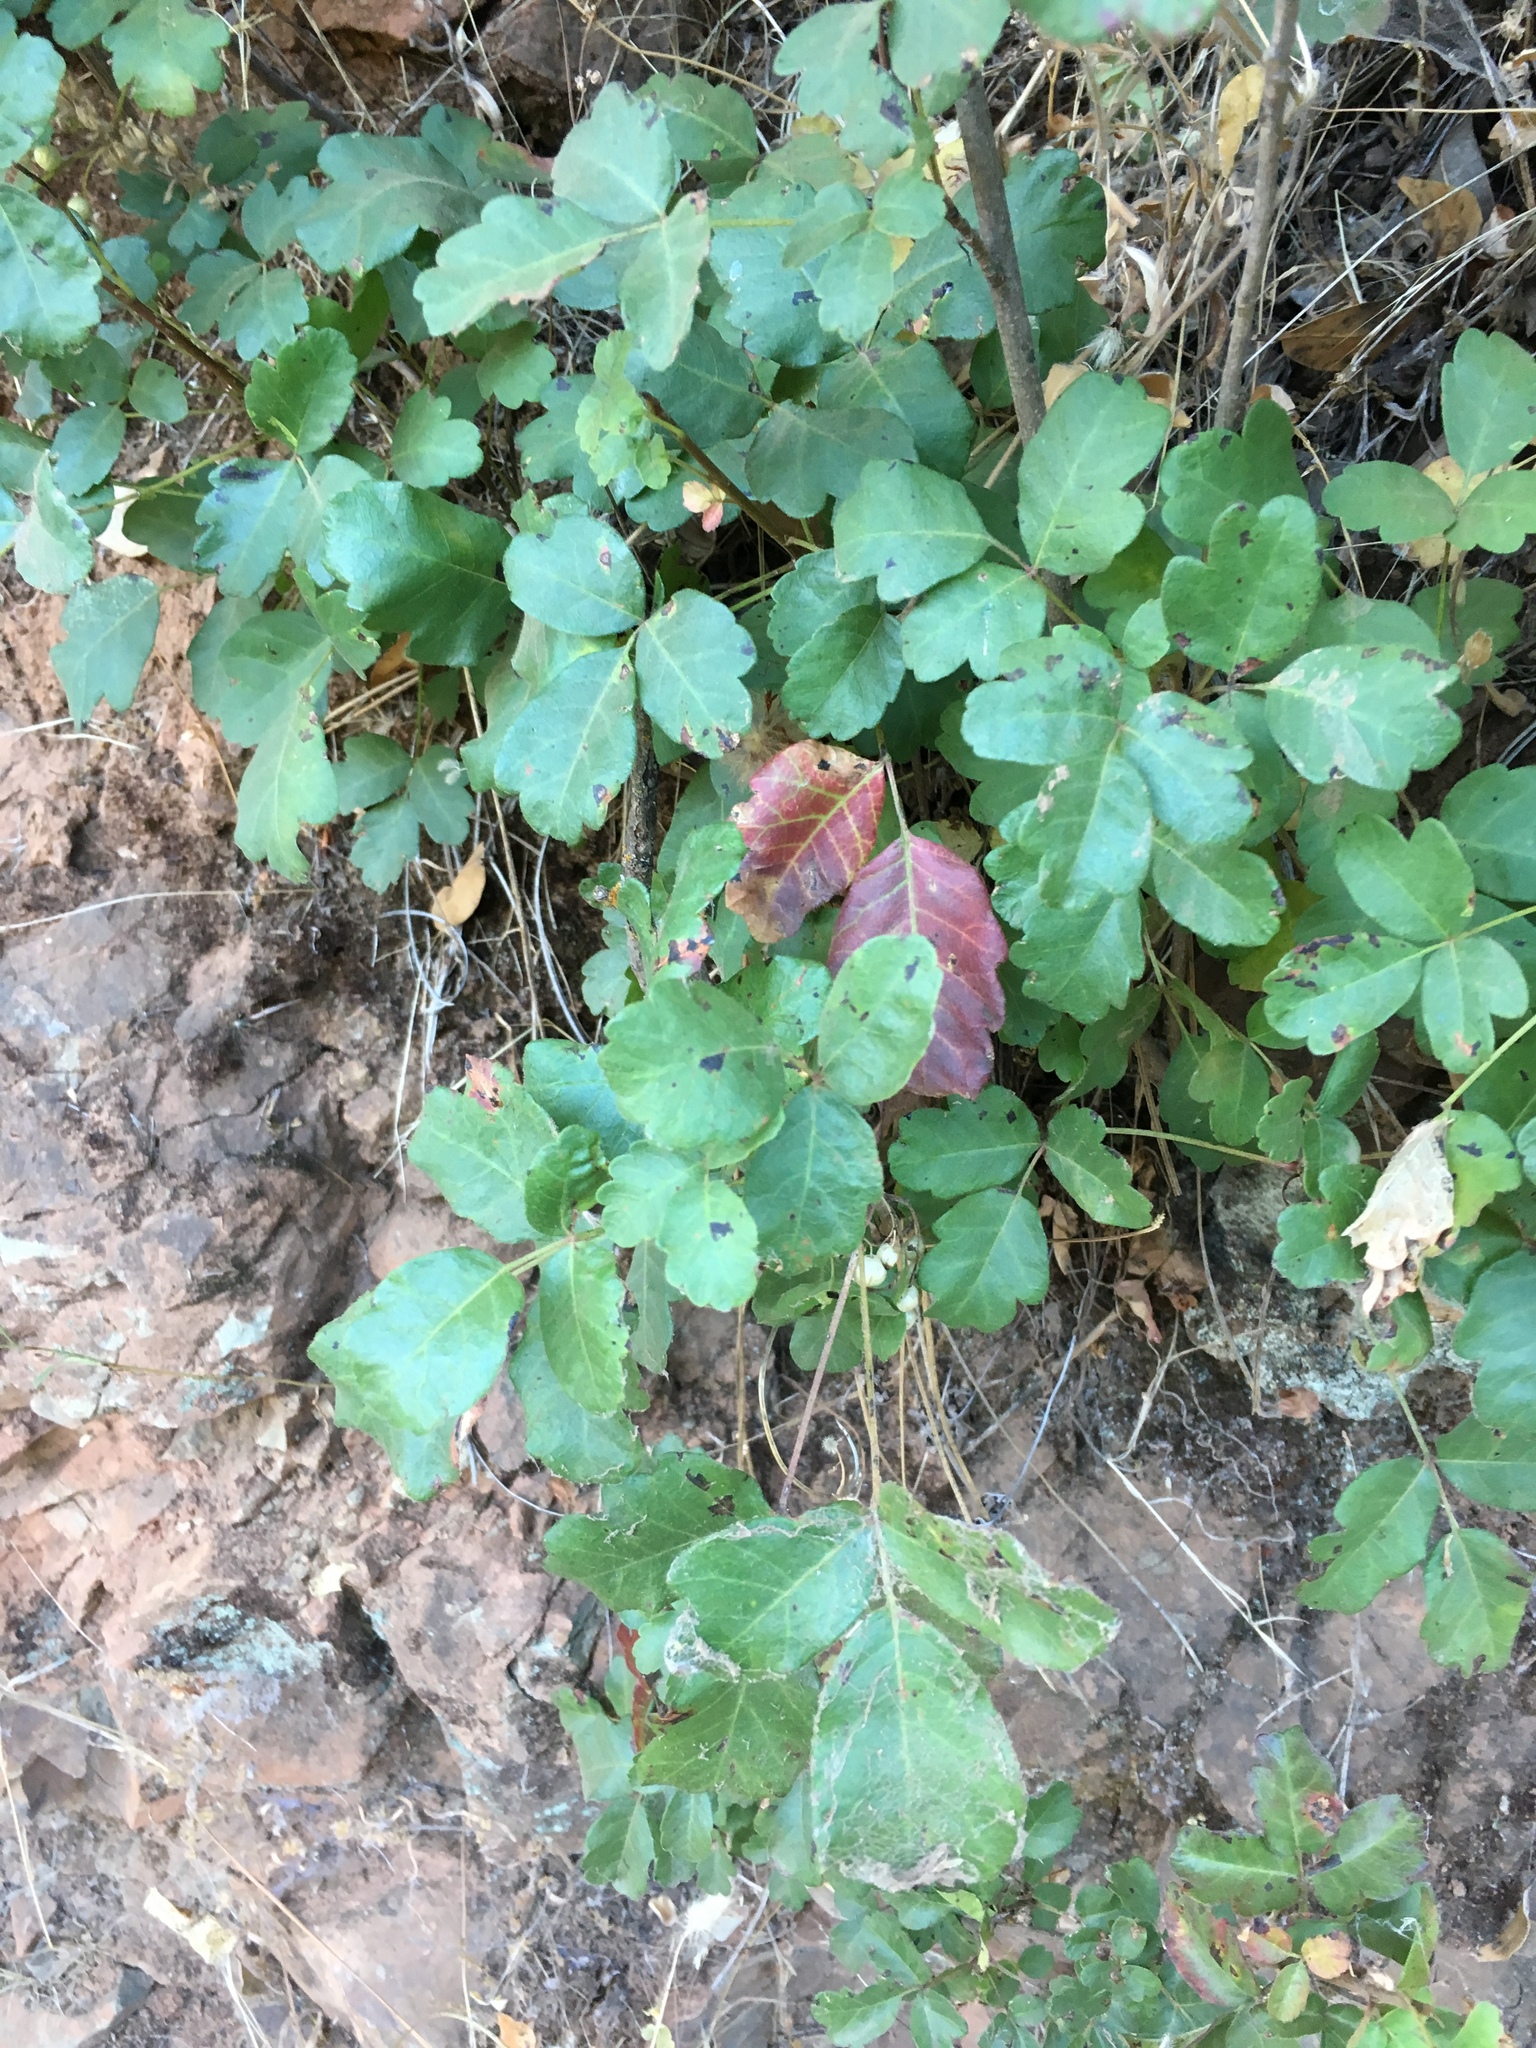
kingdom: Plantae
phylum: Tracheophyta
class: Magnoliopsida
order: Sapindales
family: Anacardiaceae
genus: Toxicodendron
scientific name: Toxicodendron diversilobum
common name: Pacific poison-oak
